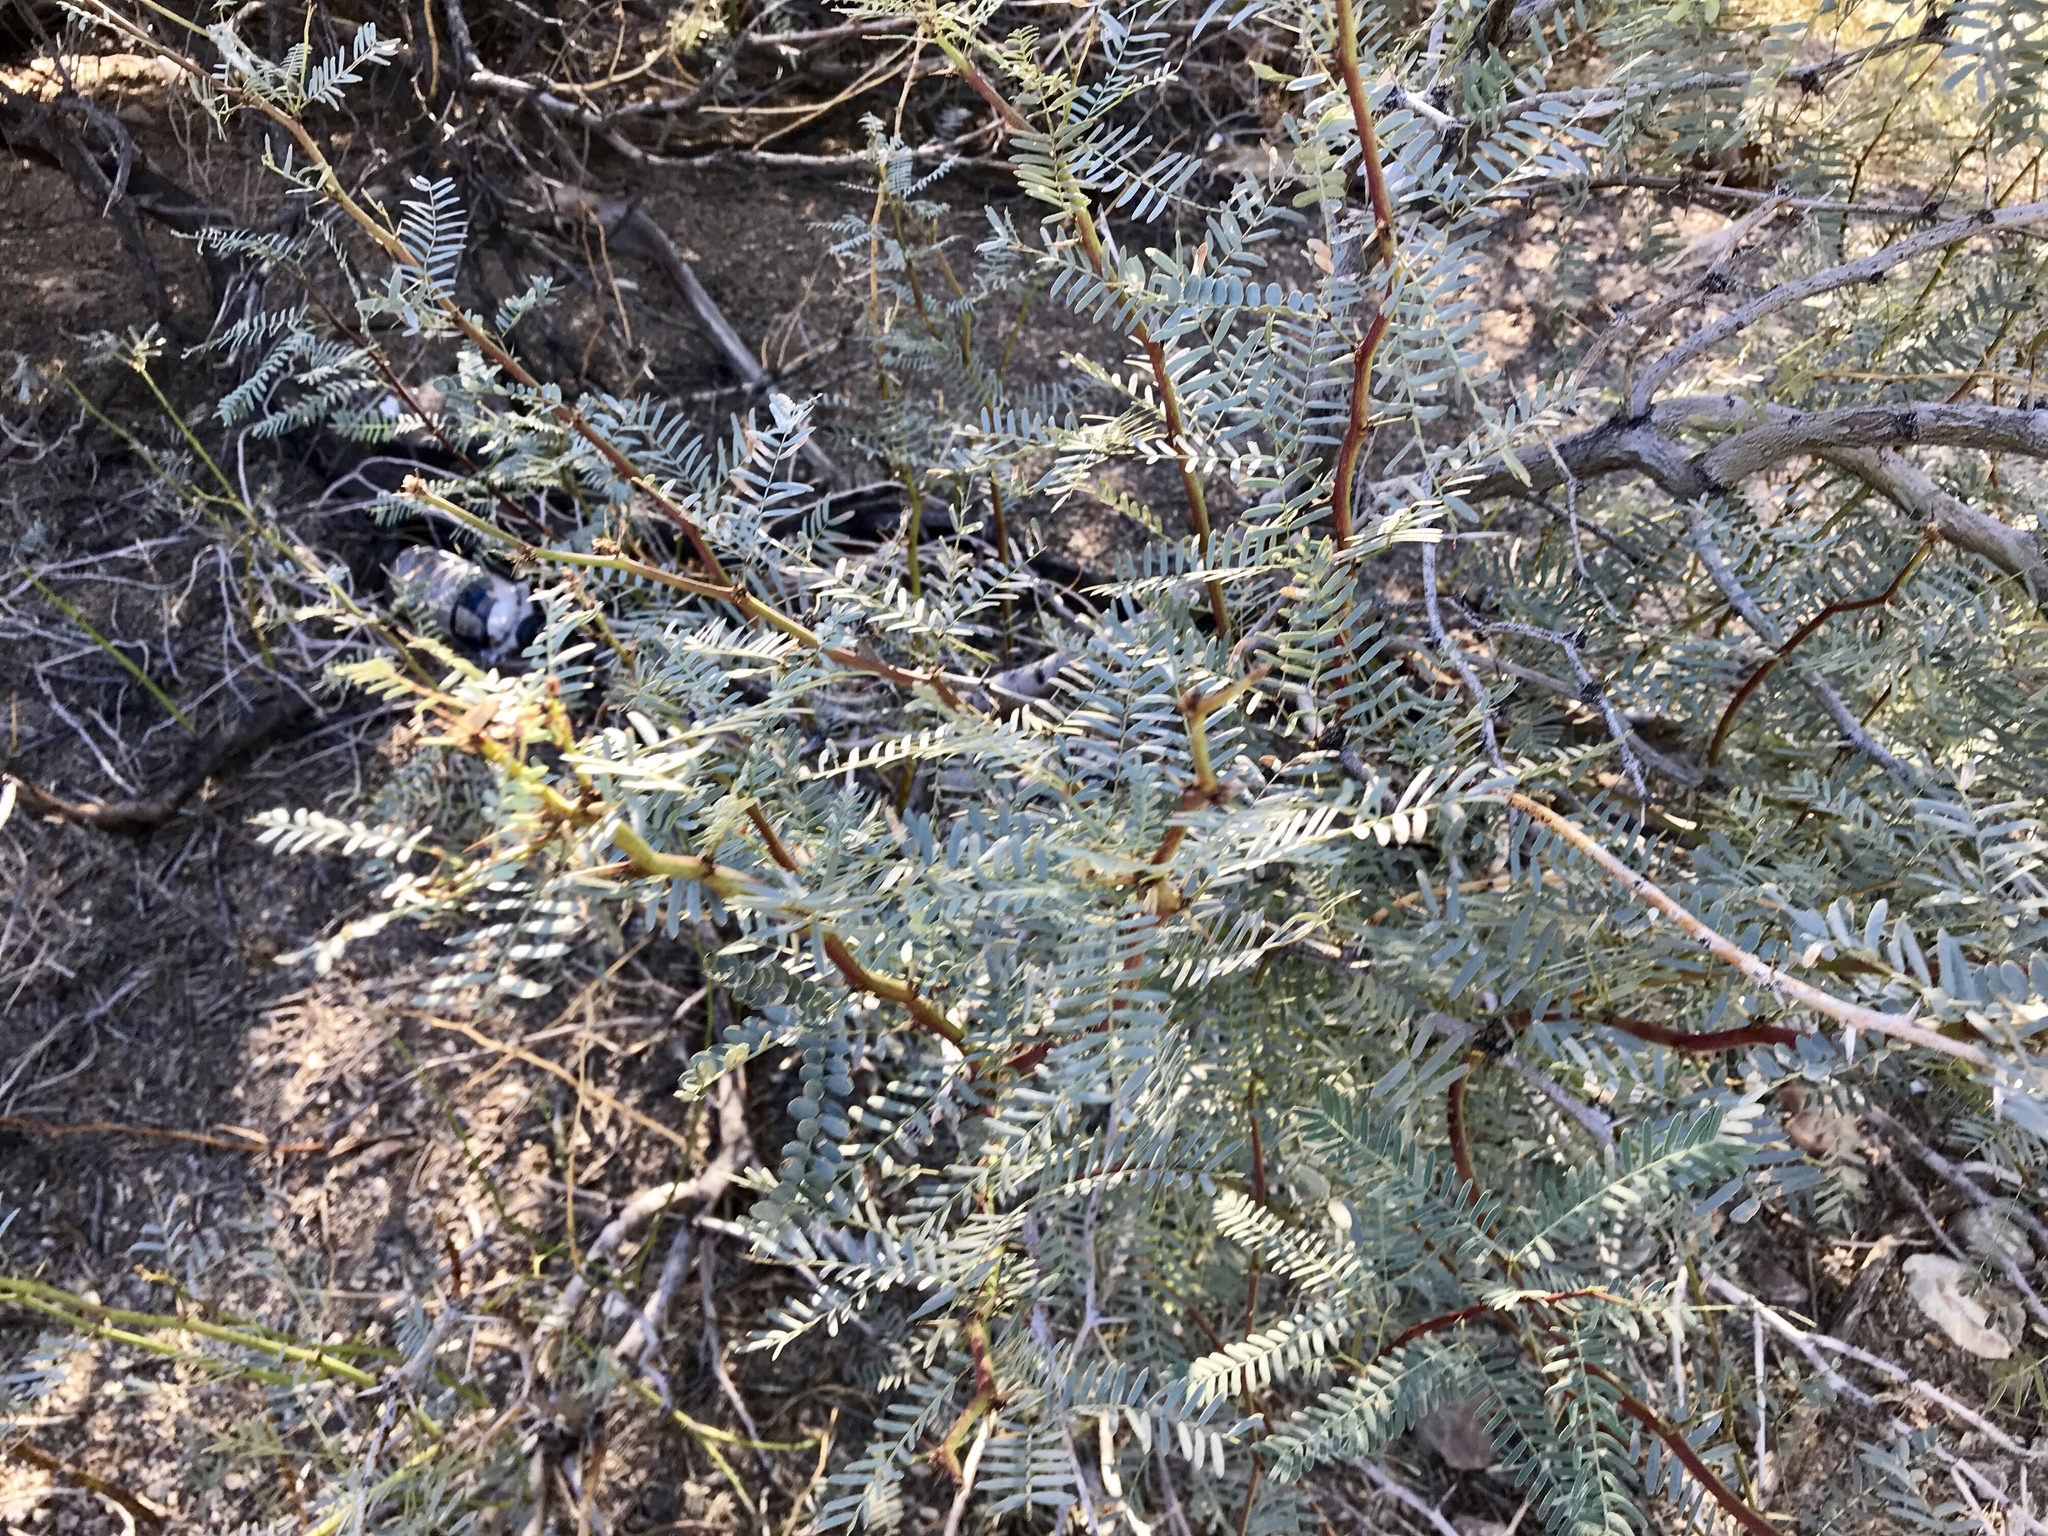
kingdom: Plantae
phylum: Tracheophyta
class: Magnoliopsida
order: Fabales
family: Fabaceae
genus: Prosopis
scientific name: Prosopis glandulosa
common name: Honey mesquite
